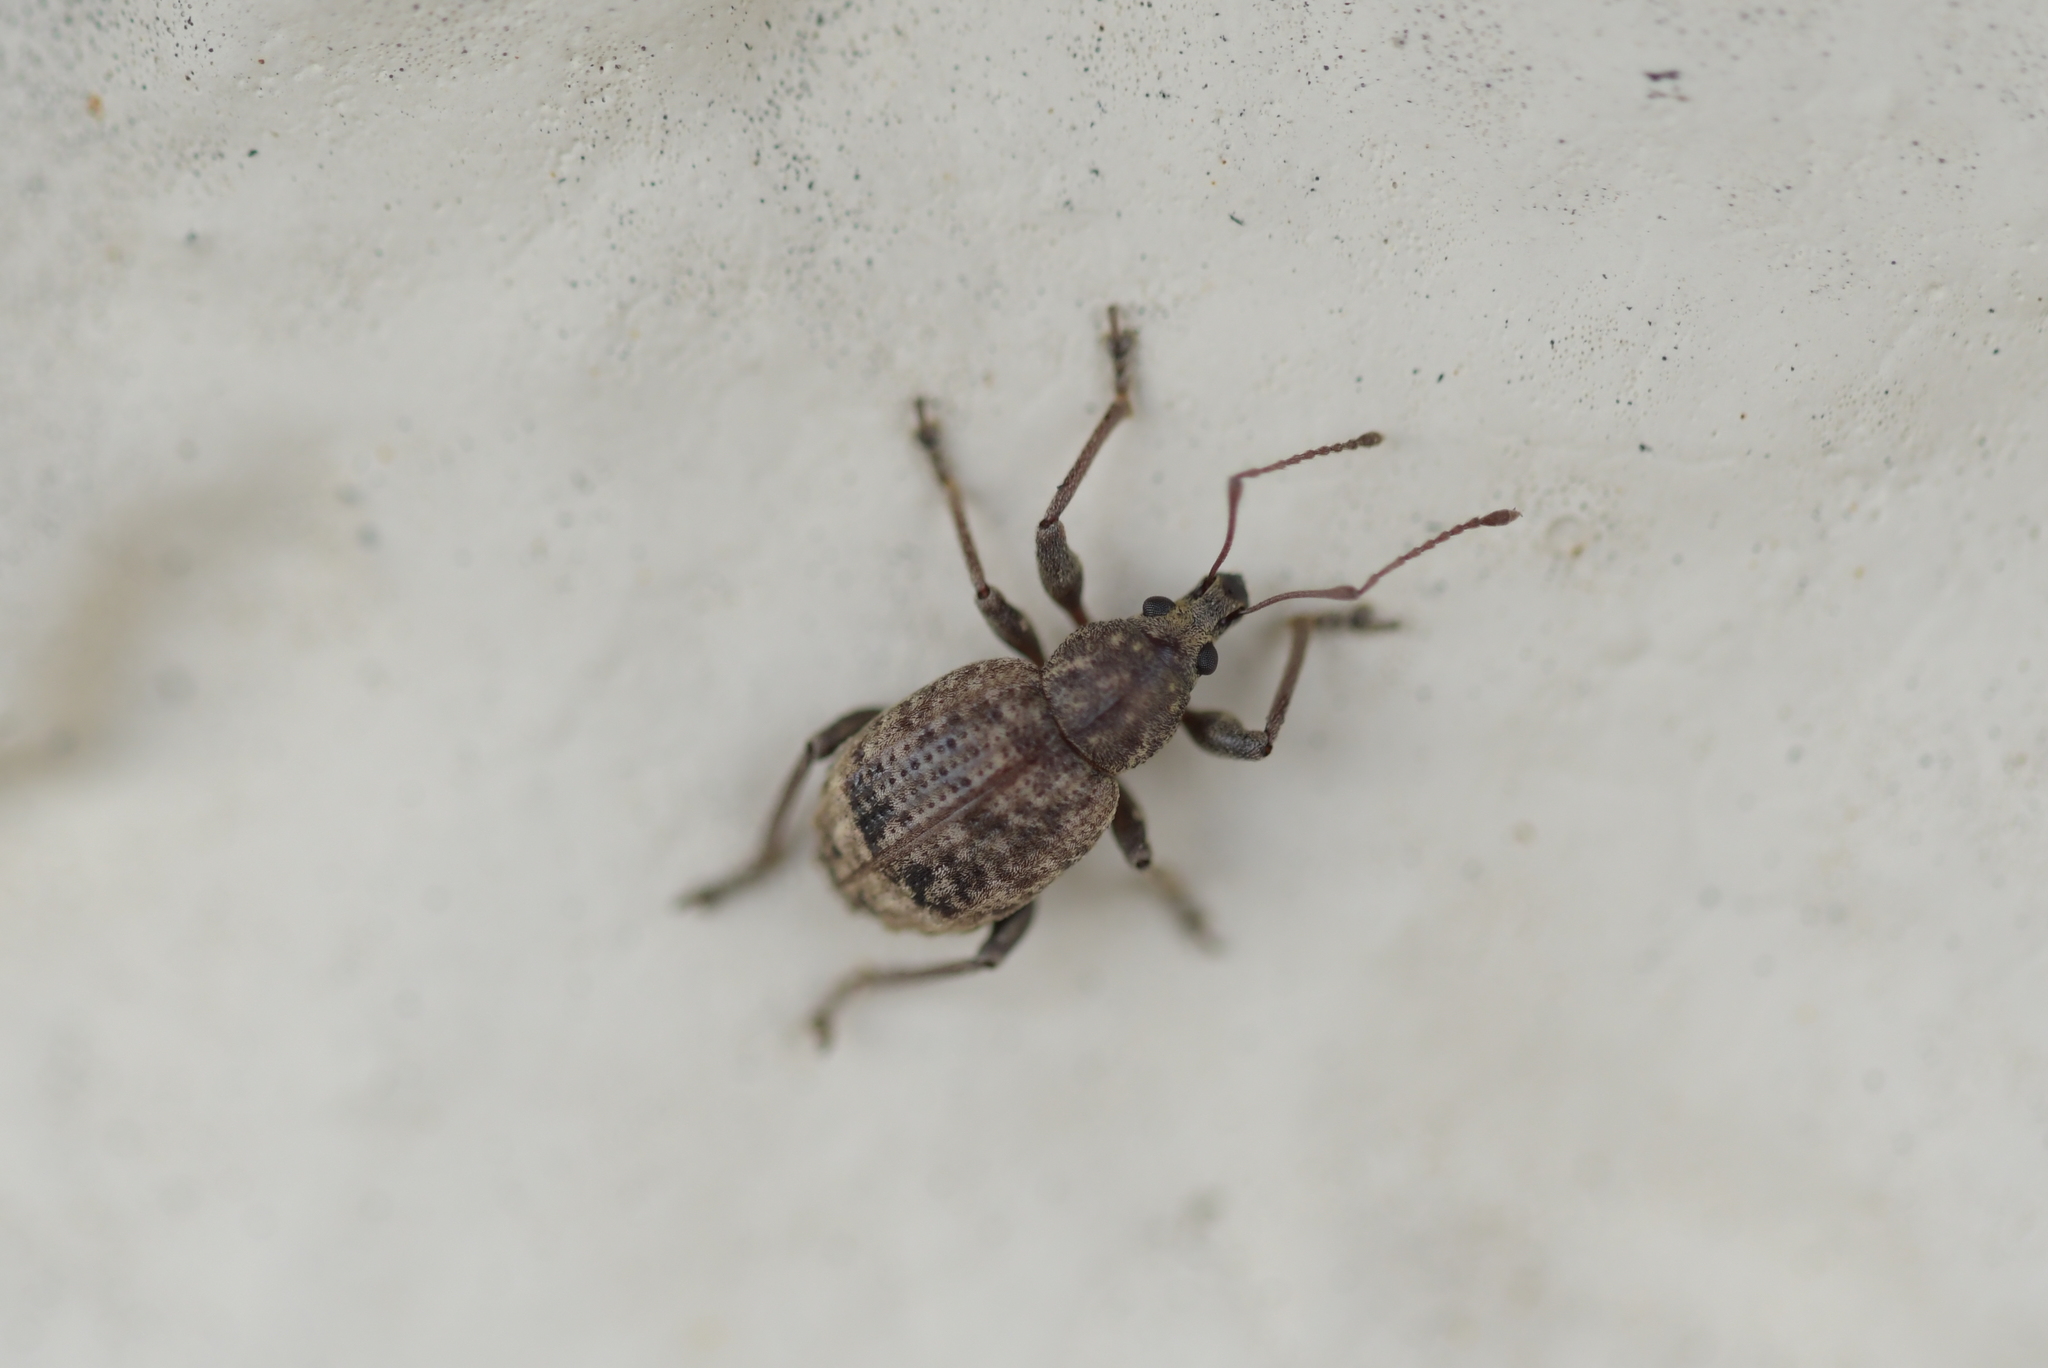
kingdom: Animalia
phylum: Arthropoda
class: Insecta
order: Coleoptera
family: Curculionidae
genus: Phlyctinus
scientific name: Phlyctinus callosus
